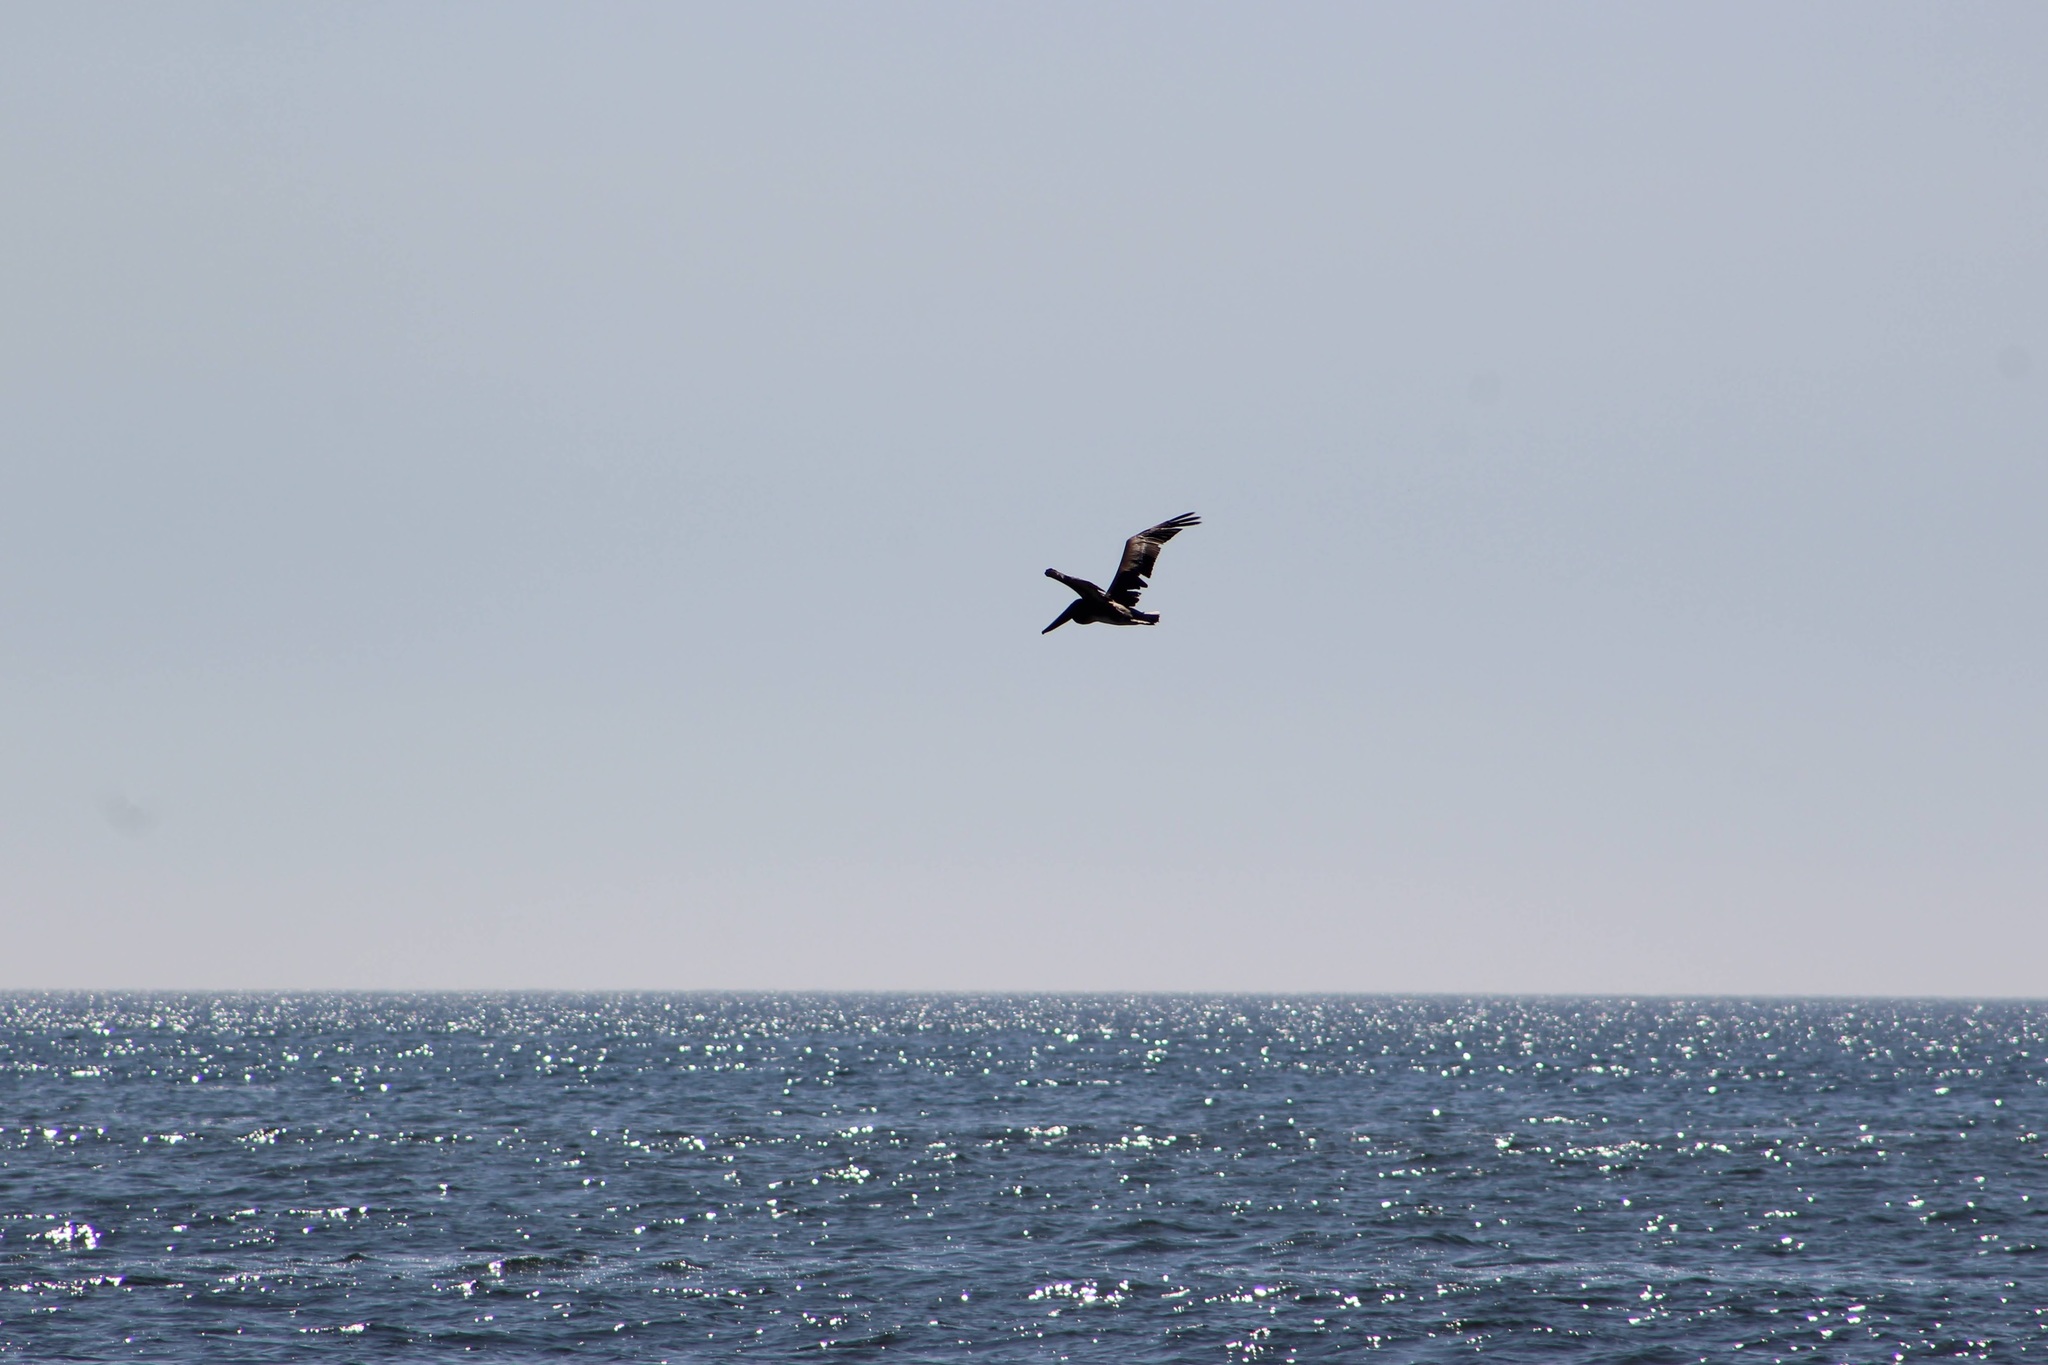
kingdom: Animalia
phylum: Chordata
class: Aves
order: Pelecaniformes
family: Pelecanidae
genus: Pelecanus
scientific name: Pelecanus occidentalis
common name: Brown pelican
